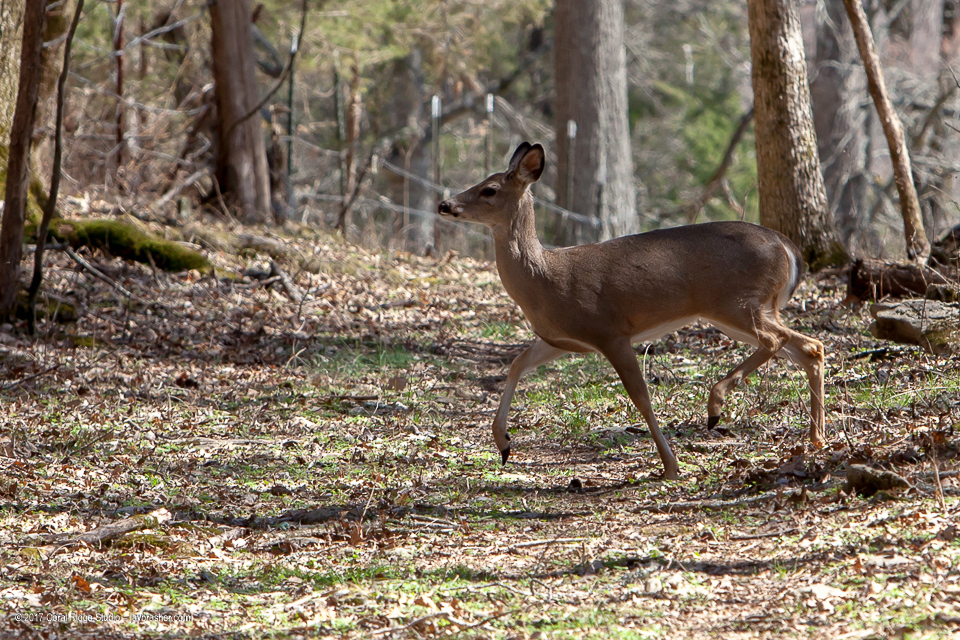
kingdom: Animalia
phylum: Chordata
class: Mammalia
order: Artiodactyla
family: Cervidae
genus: Odocoileus
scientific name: Odocoileus virginianus
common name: White-tailed deer
